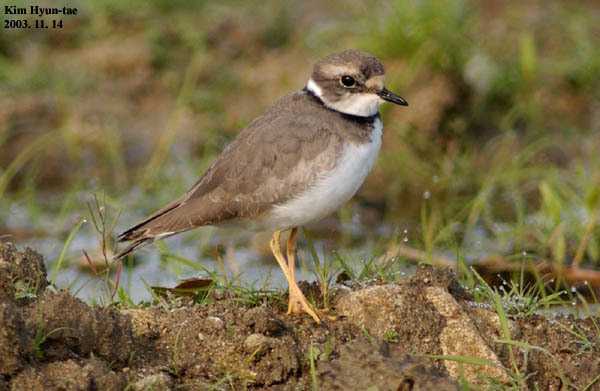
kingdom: Animalia
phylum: Chordata
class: Aves
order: Charadriiformes
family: Charadriidae
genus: Charadrius
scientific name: Charadrius dubius
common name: Little ringed plover
